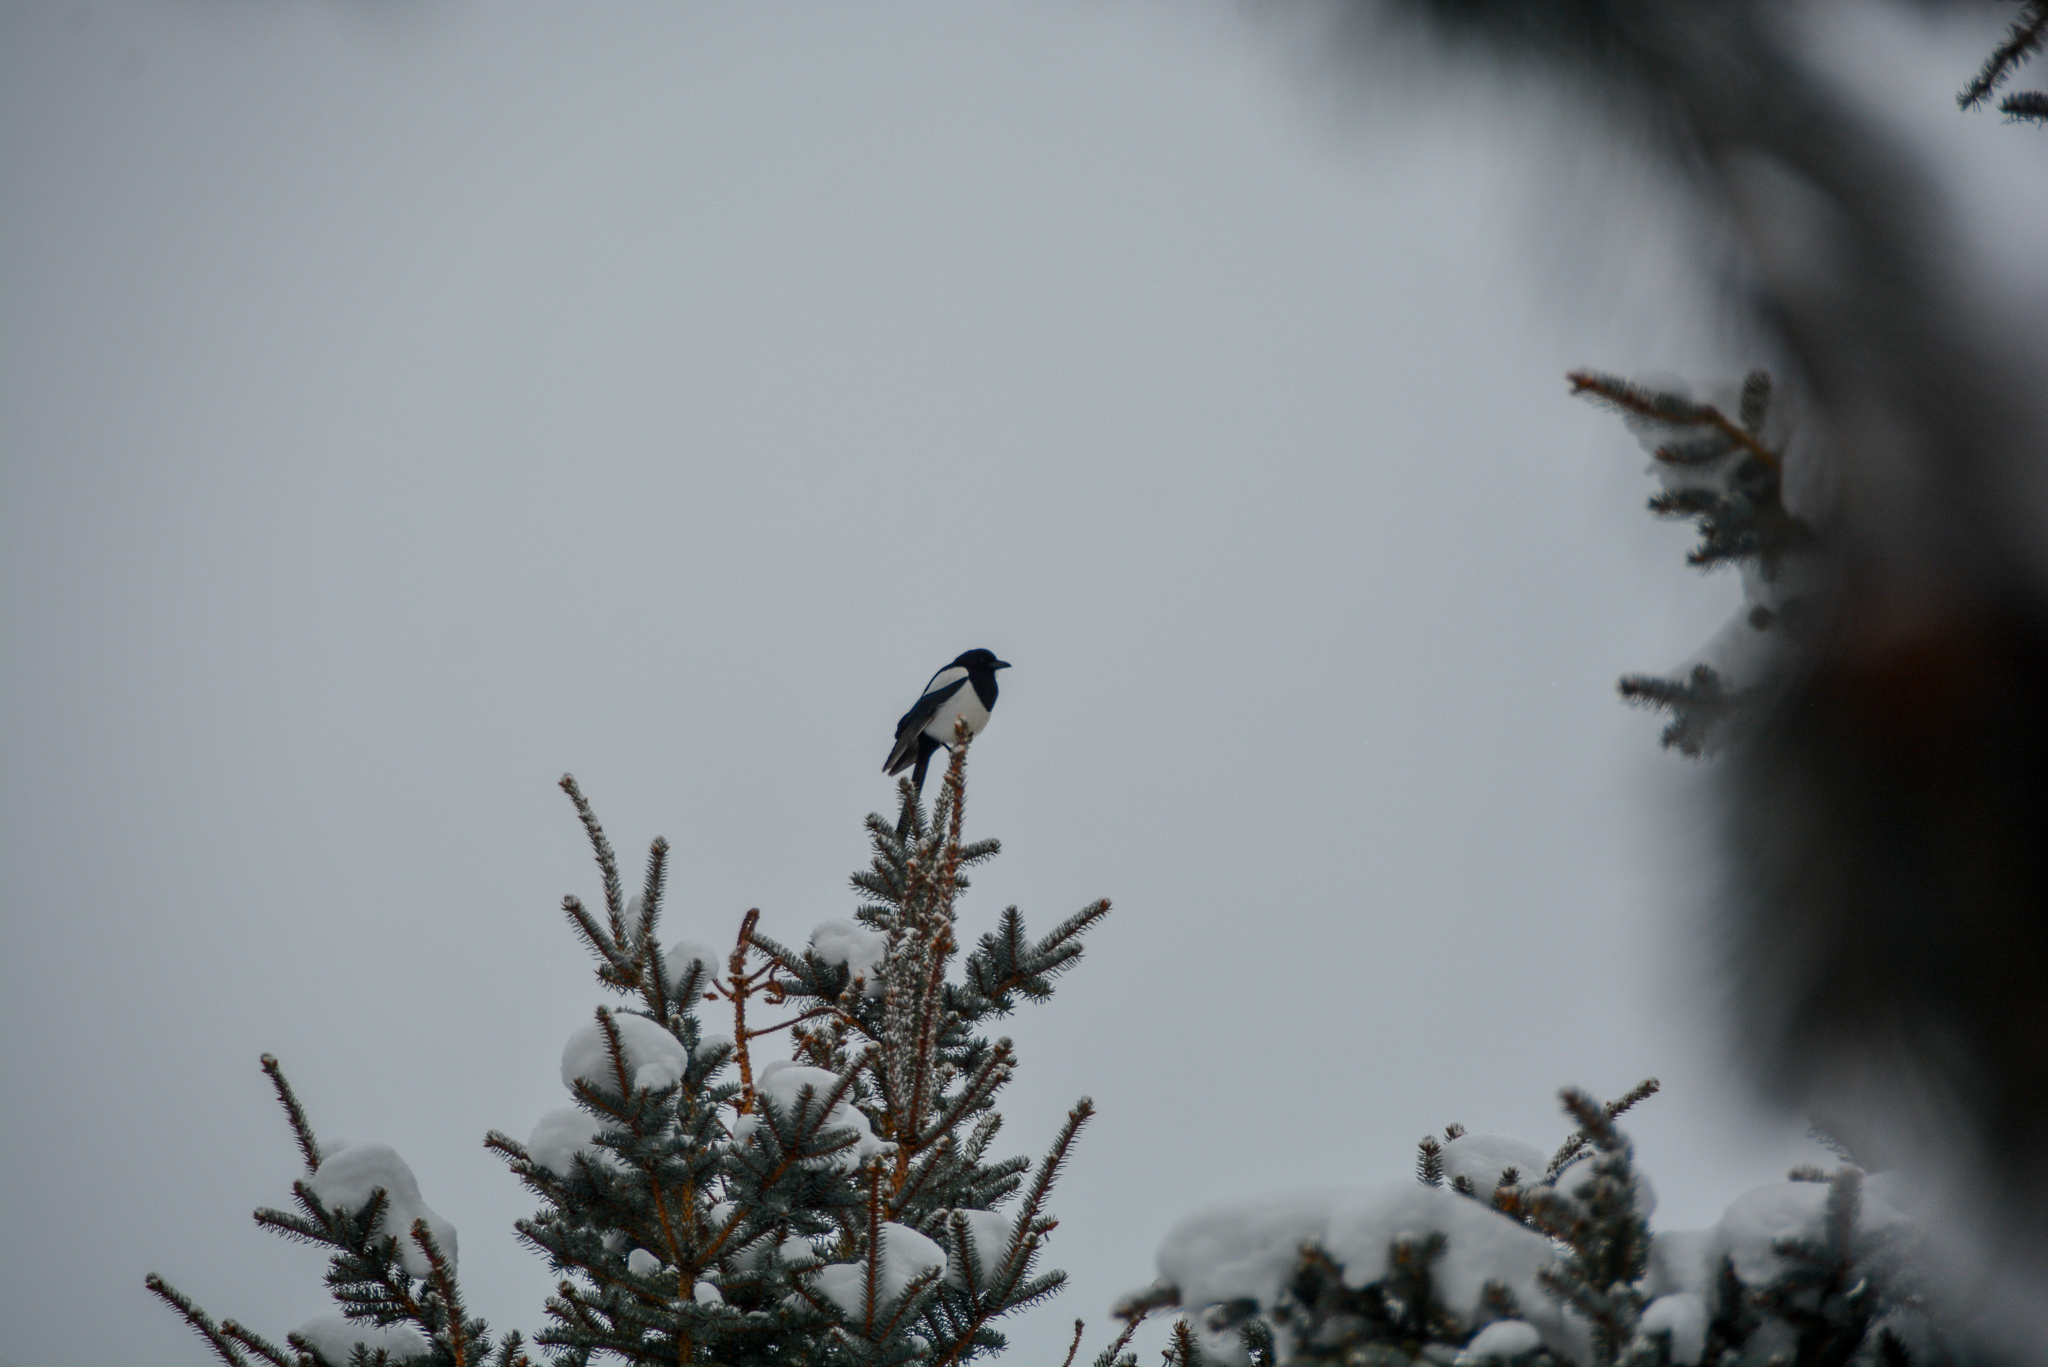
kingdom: Animalia
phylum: Chordata
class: Aves
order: Passeriformes
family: Corvidae
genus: Pica
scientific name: Pica hudsonia
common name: Black-billed magpie
